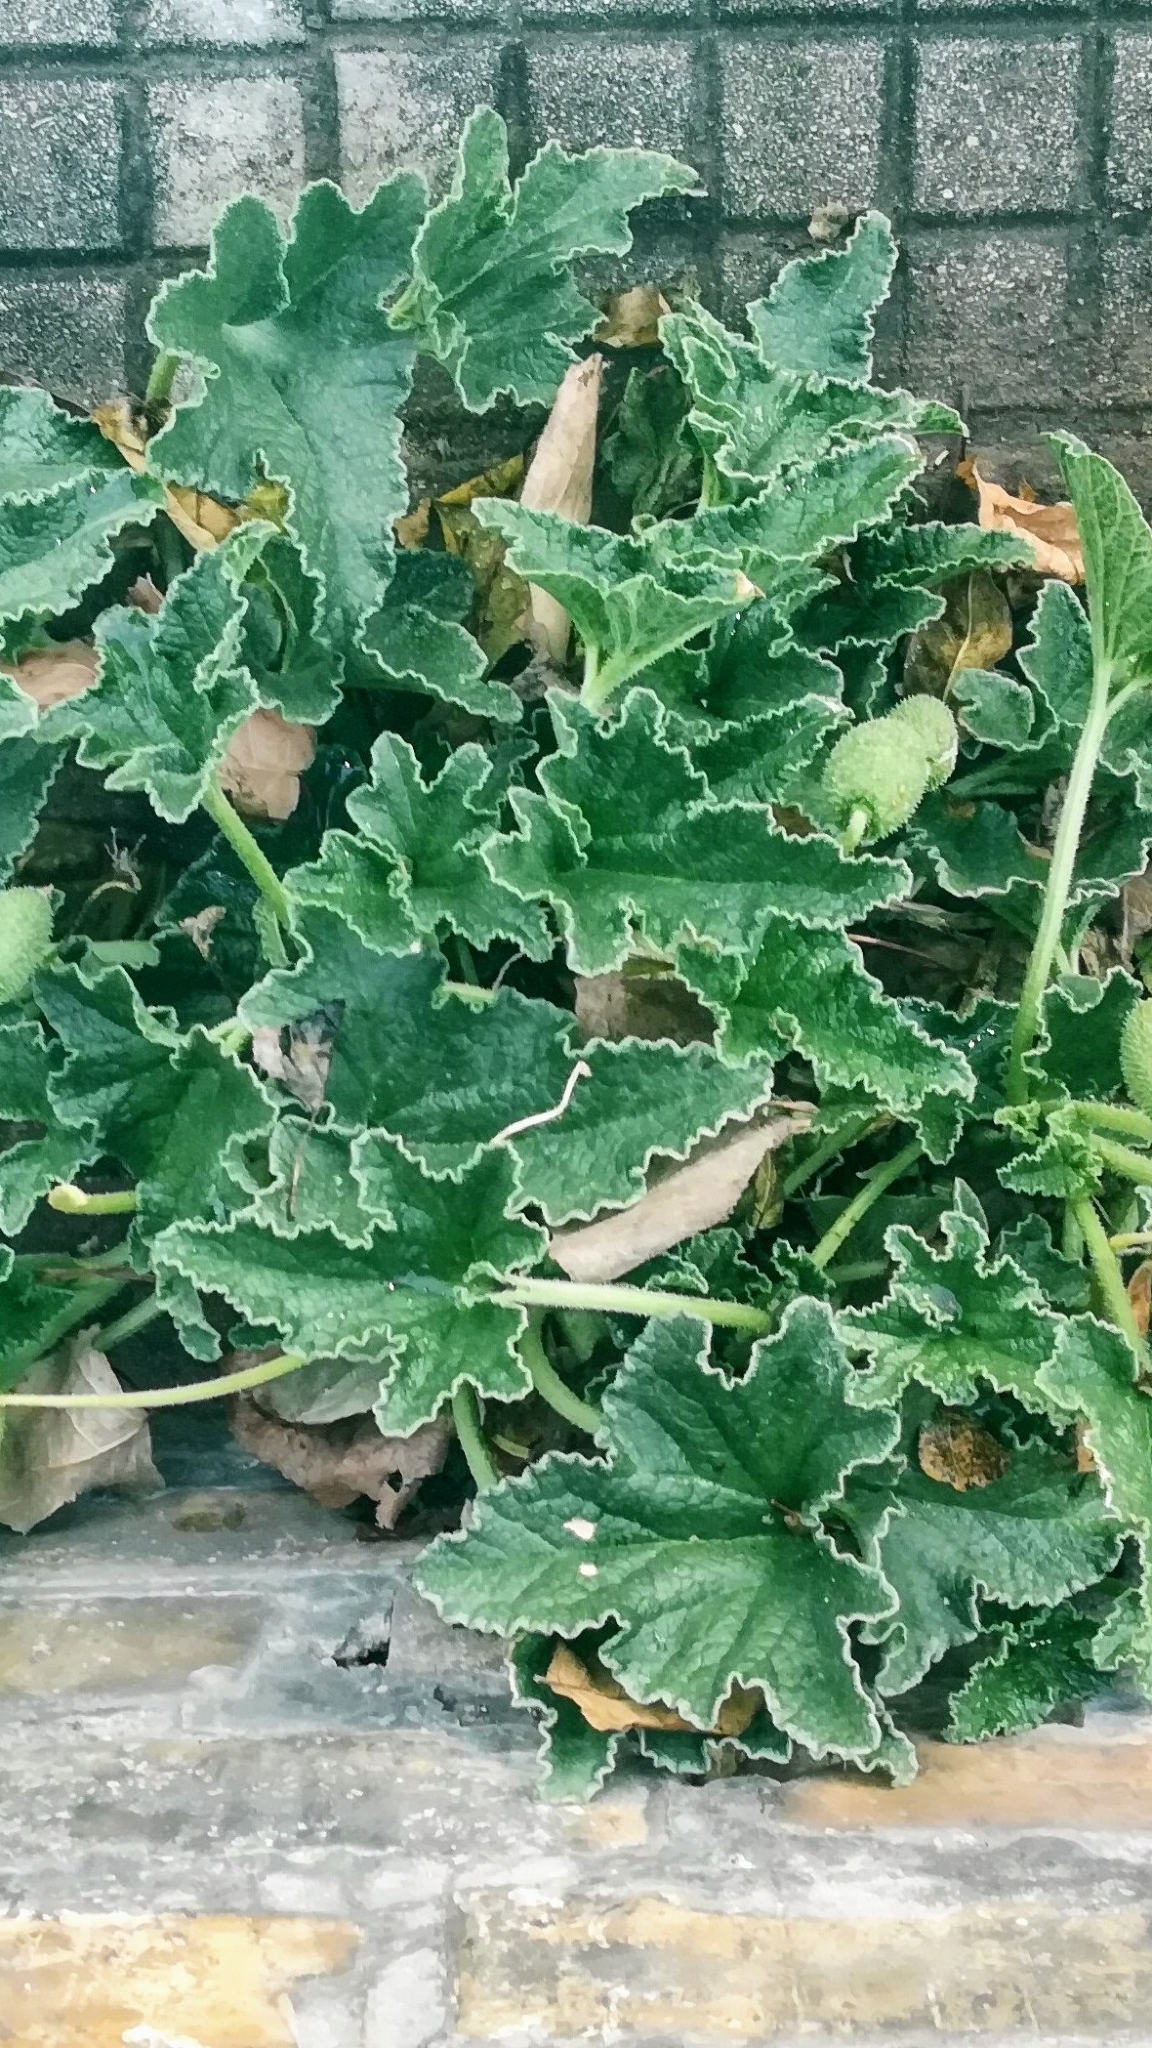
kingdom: Plantae
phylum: Tracheophyta
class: Magnoliopsida
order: Cucurbitales
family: Cucurbitaceae
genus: Ecballium
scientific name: Ecballium elaterium
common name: Squirting cucumber
